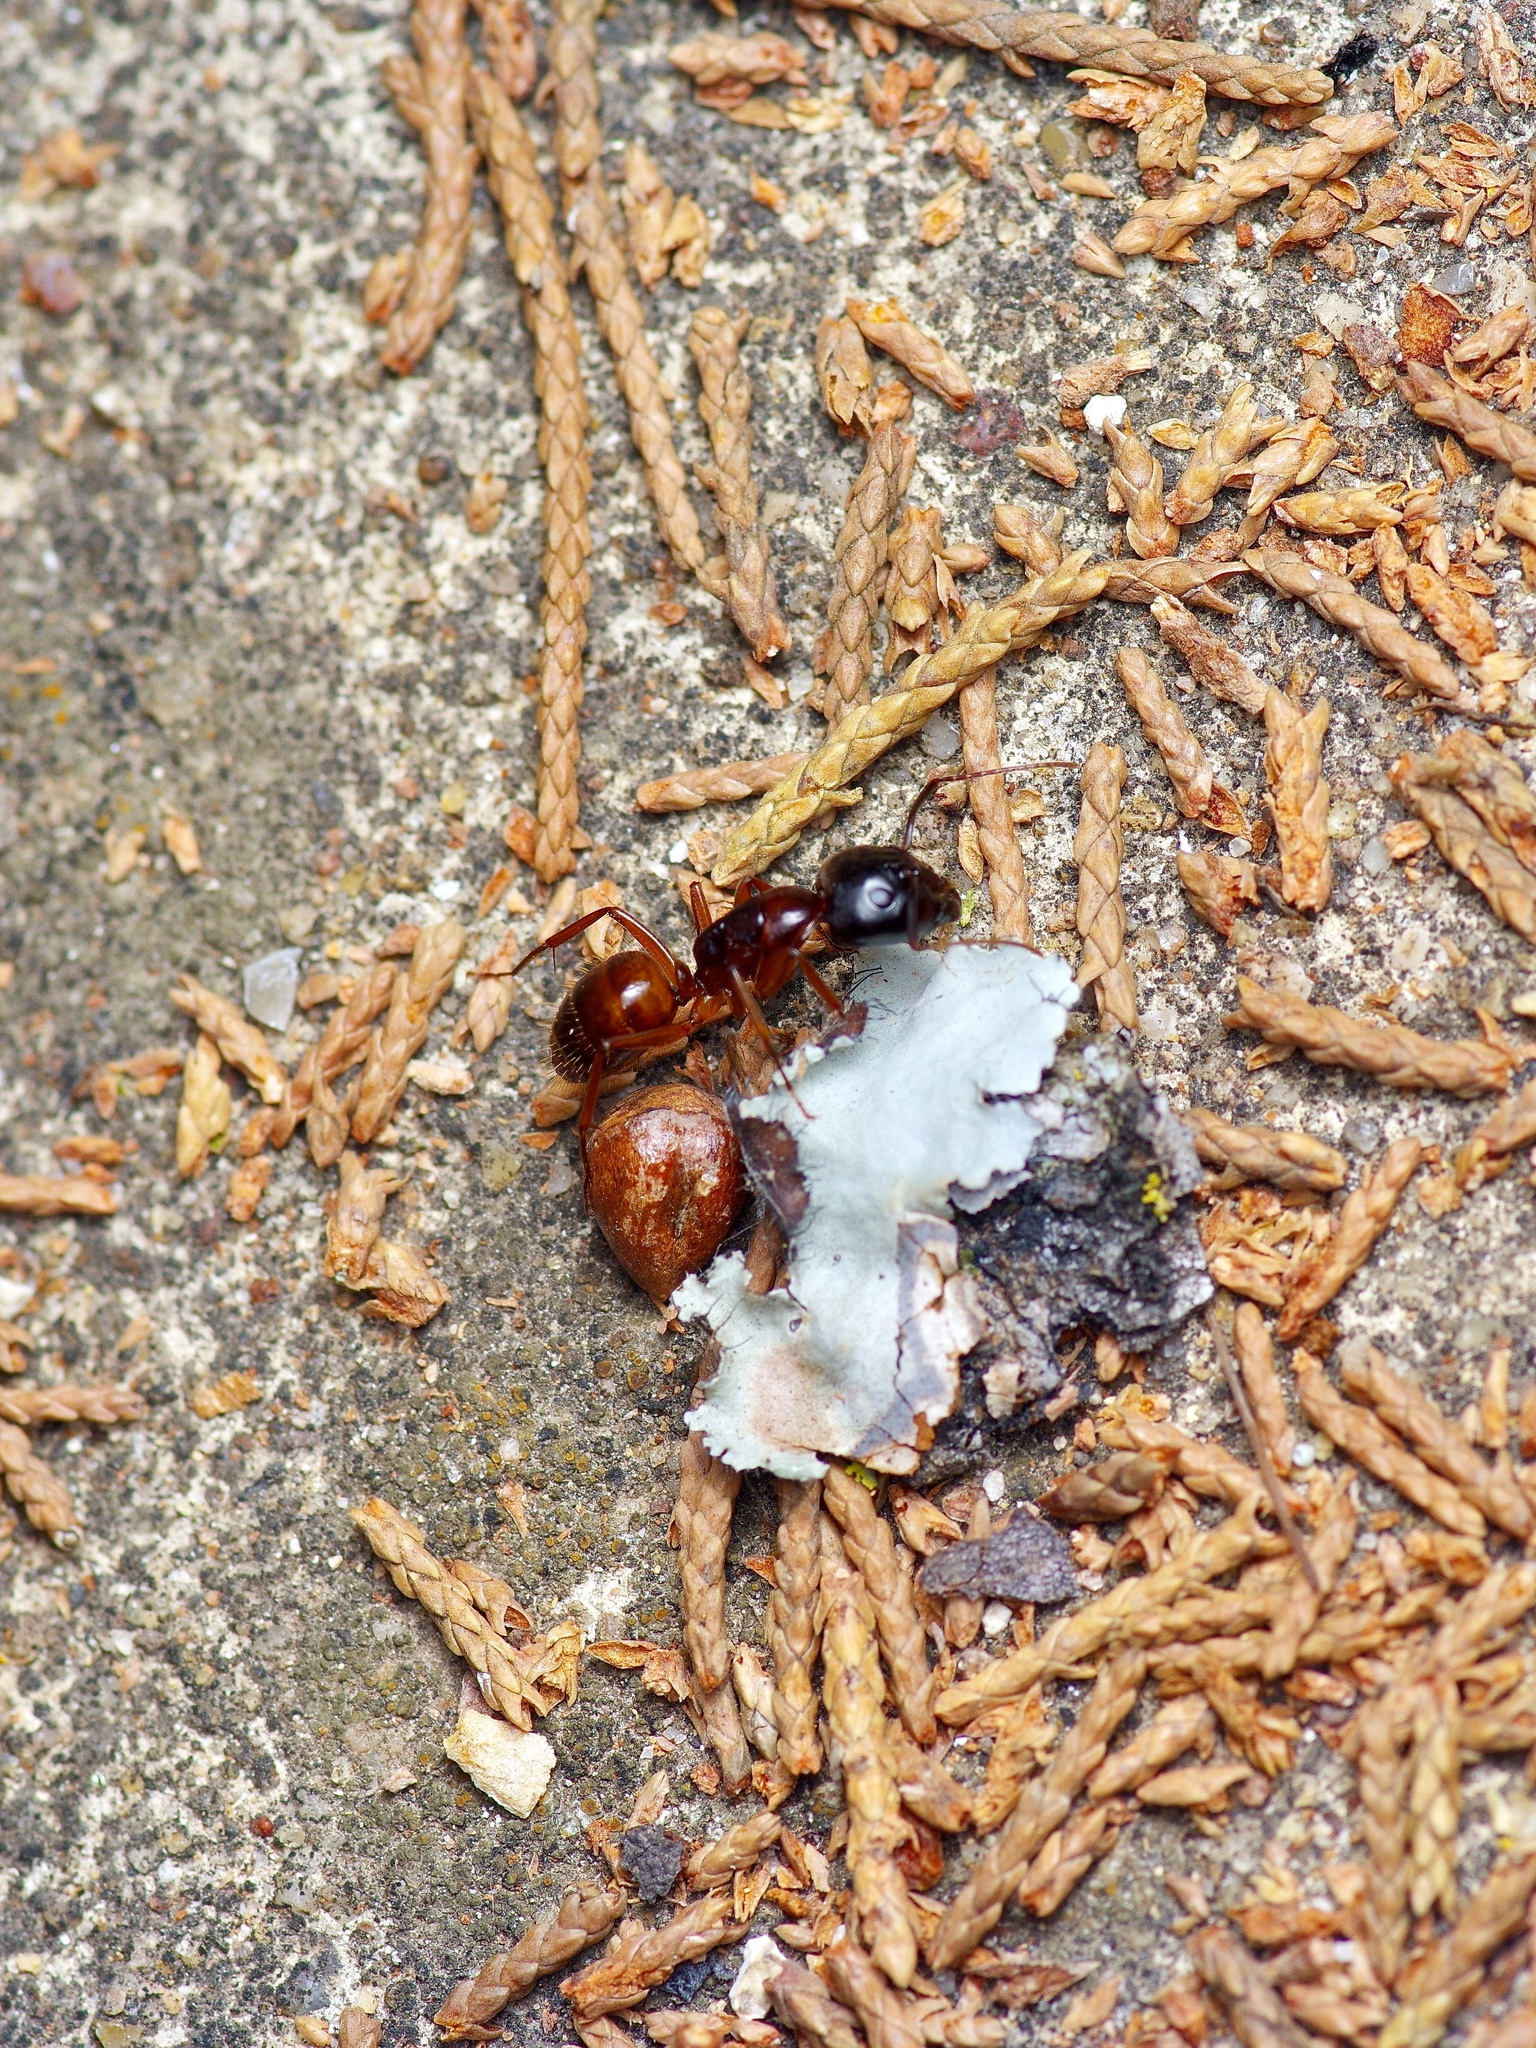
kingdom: Animalia
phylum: Arthropoda
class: Insecta
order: Hymenoptera
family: Formicidae
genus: Camponotus
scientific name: Camponotus americanus
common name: American carpenter ant
